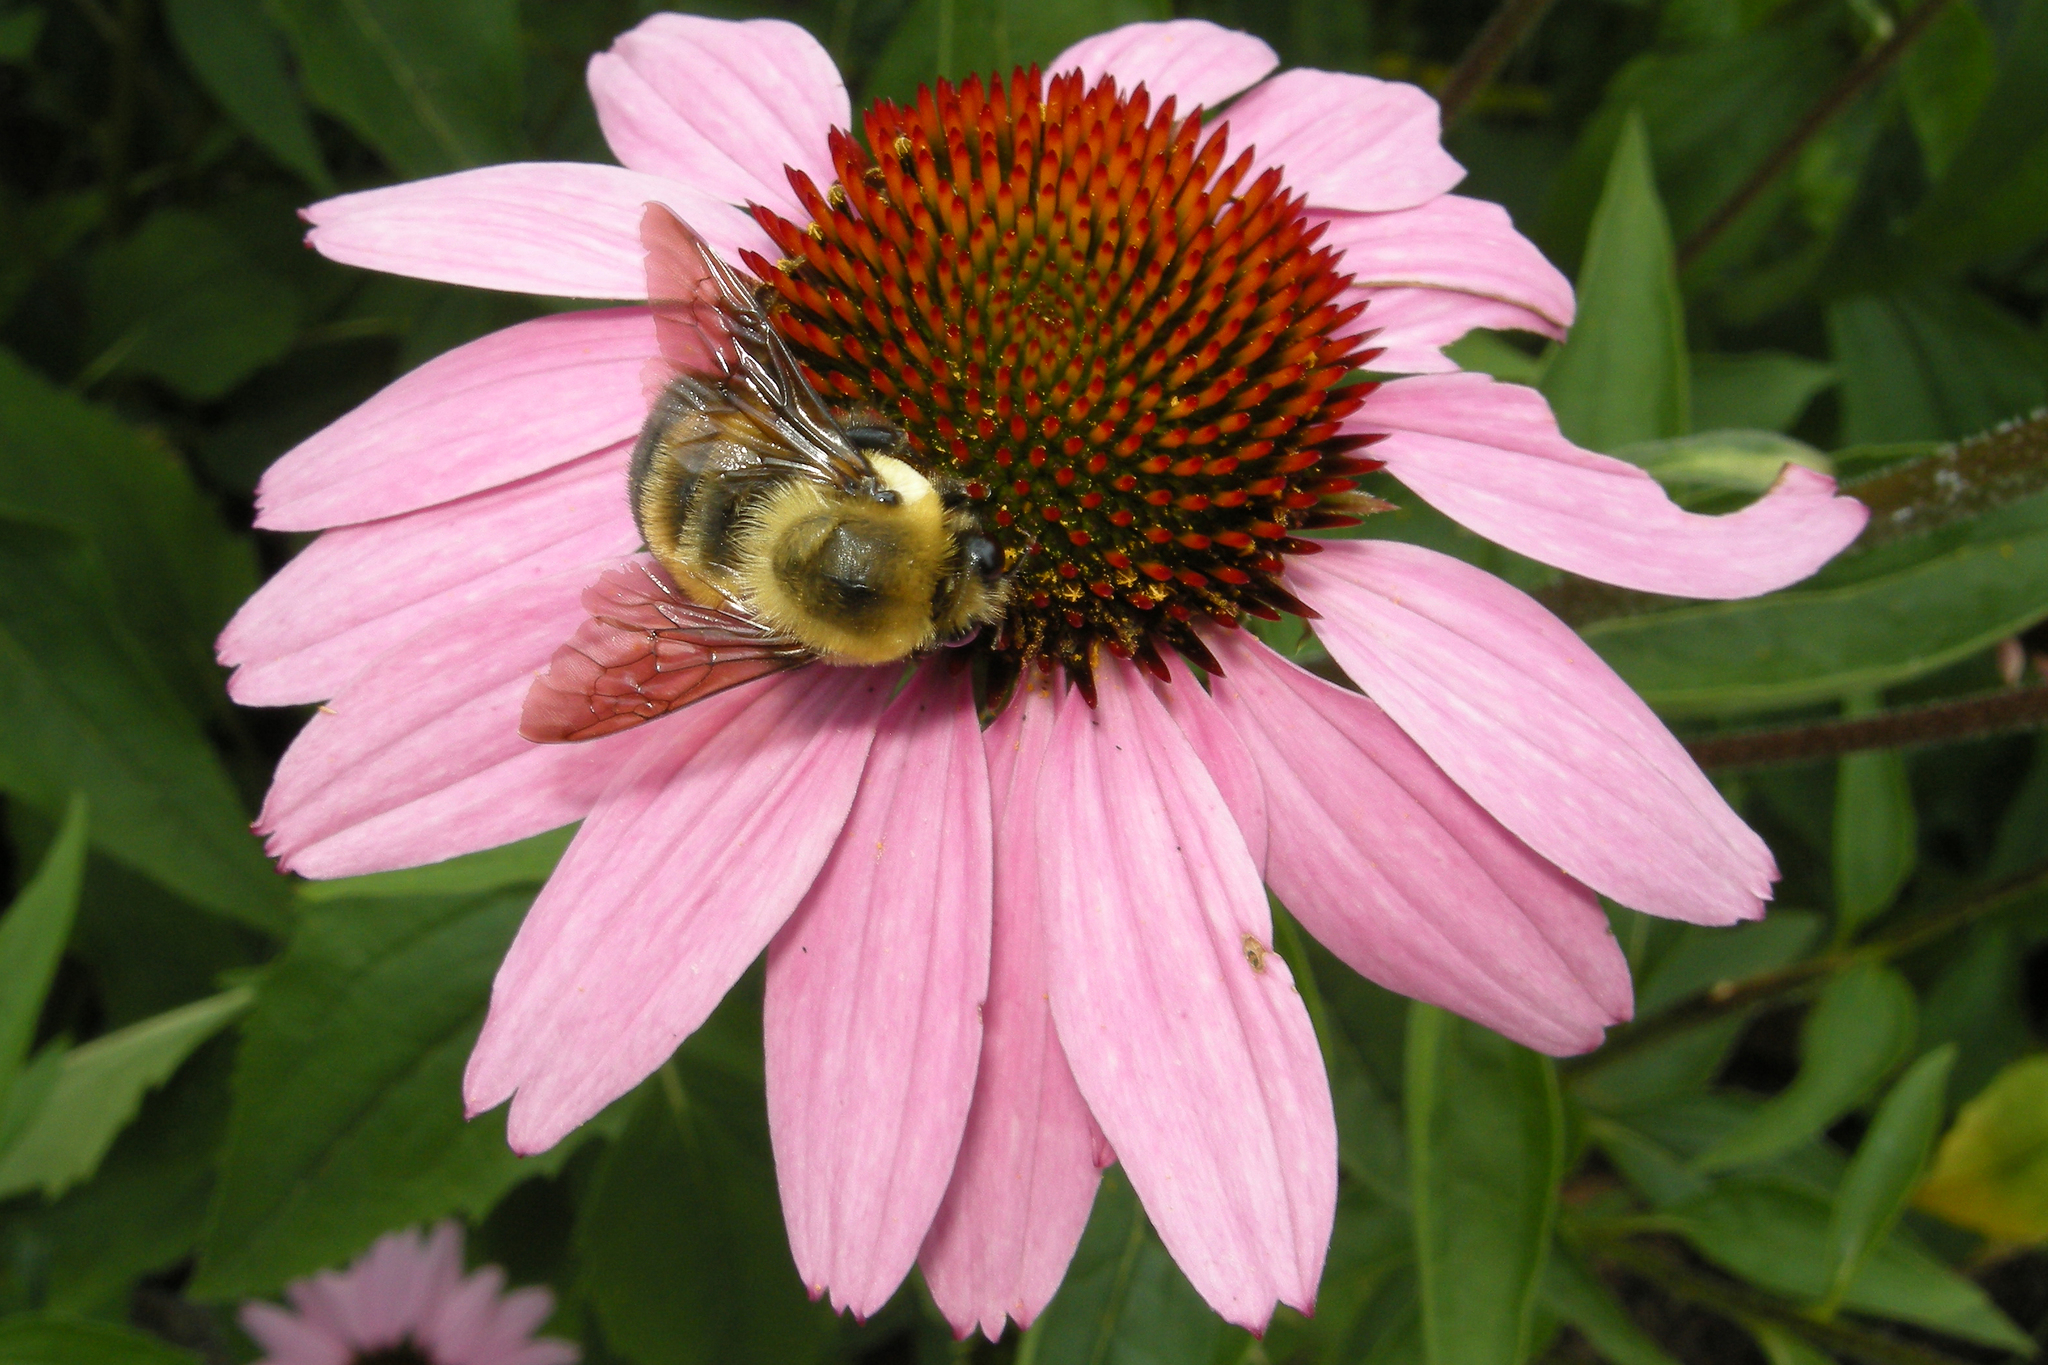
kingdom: Animalia
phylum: Arthropoda
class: Insecta
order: Hymenoptera
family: Apidae
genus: Bombus
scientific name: Bombus griseocollis
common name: Brown-belted bumble bee
